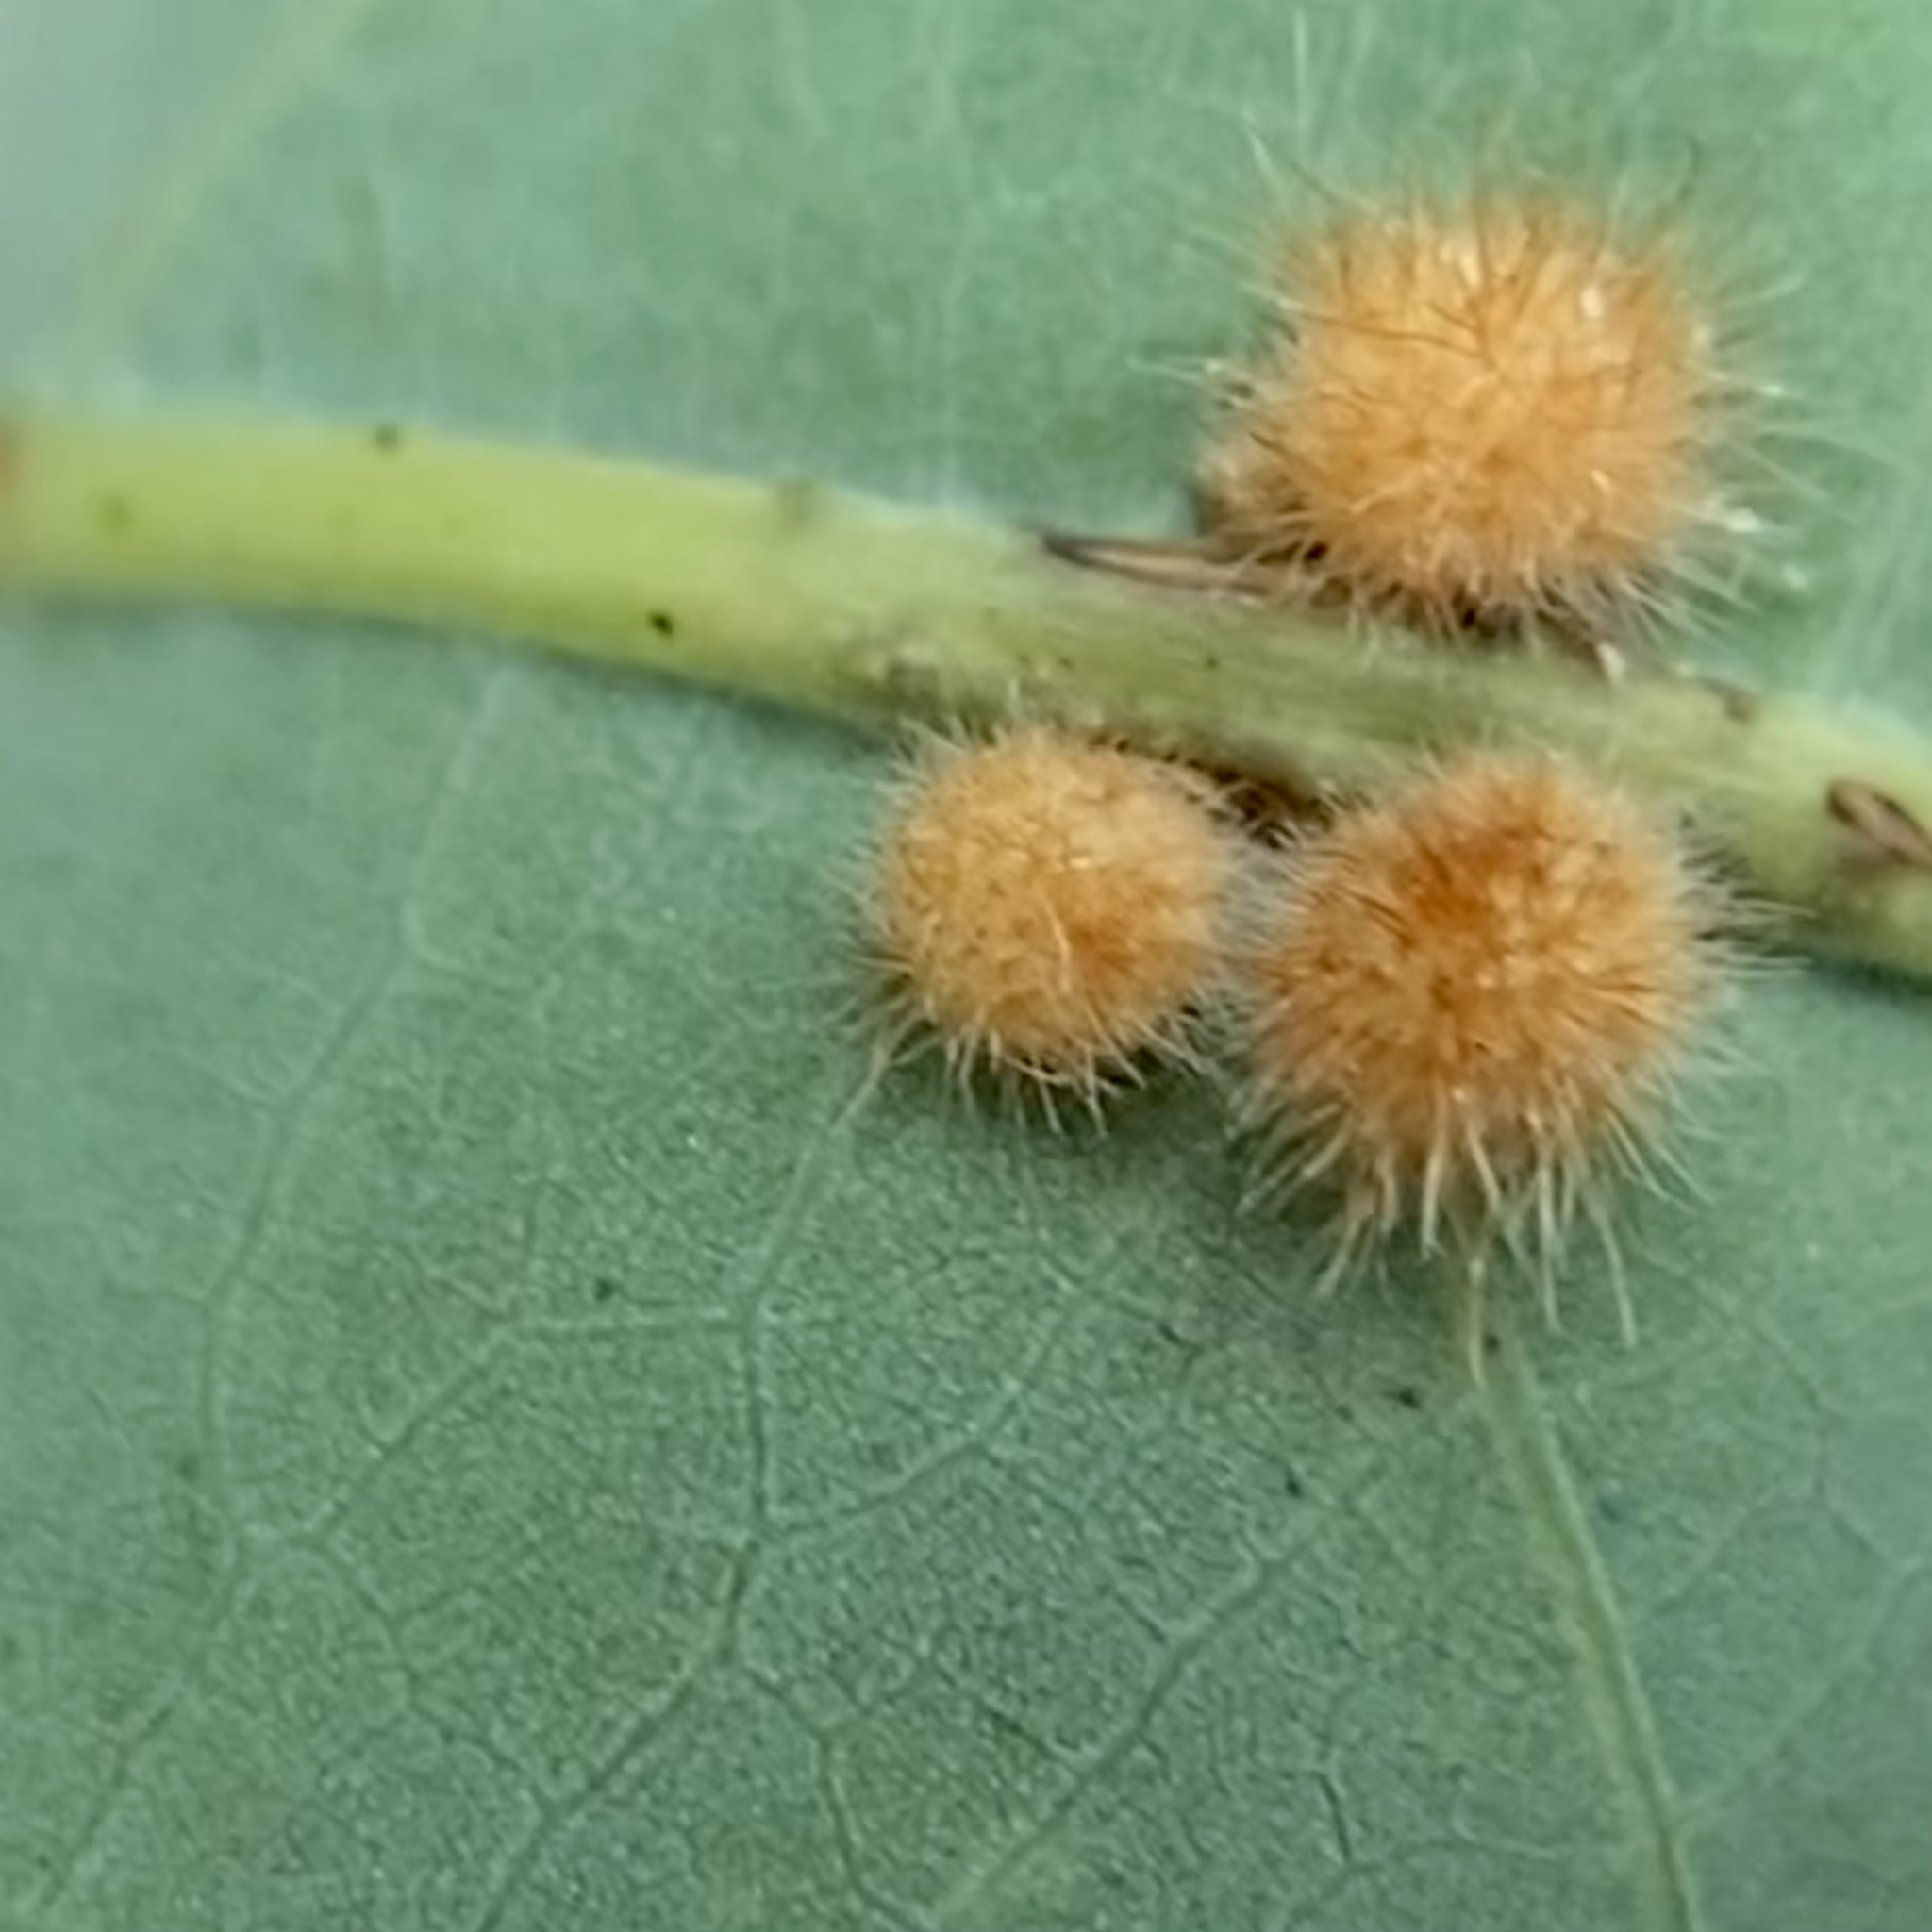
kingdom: Animalia
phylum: Arthropoda
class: Insecta
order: Hymenoptera
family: Cynipidae
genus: Andricus
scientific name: Andricus
